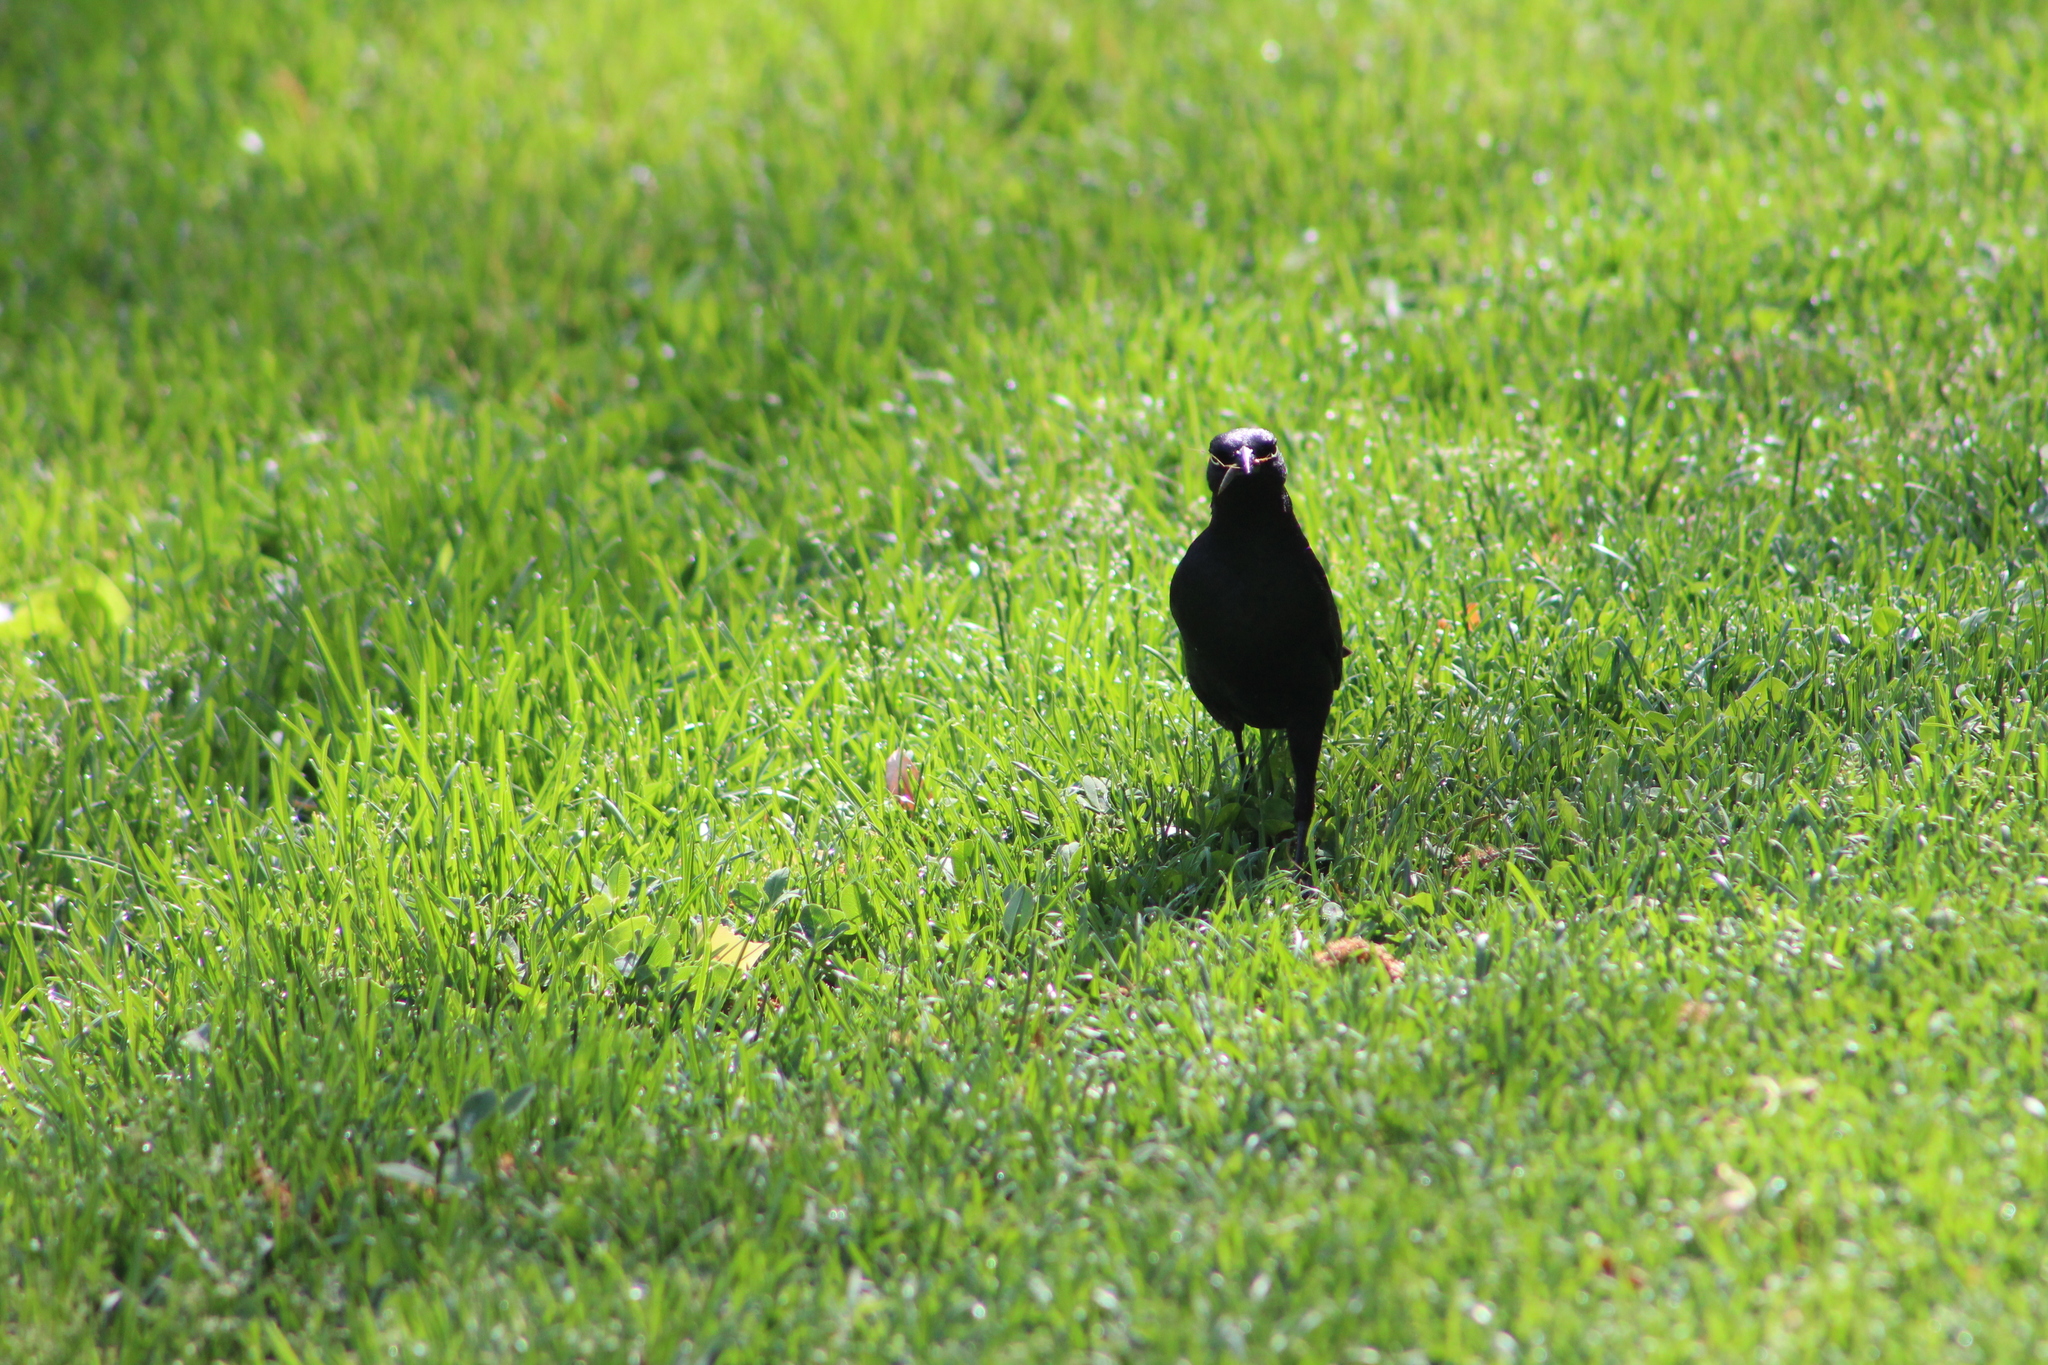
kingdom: Animalia
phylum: Chordata
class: Aves
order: Passeriformes
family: Icteridae
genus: Euphagus
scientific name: Euphagus cyanocephalus
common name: Brewer's blackbird
